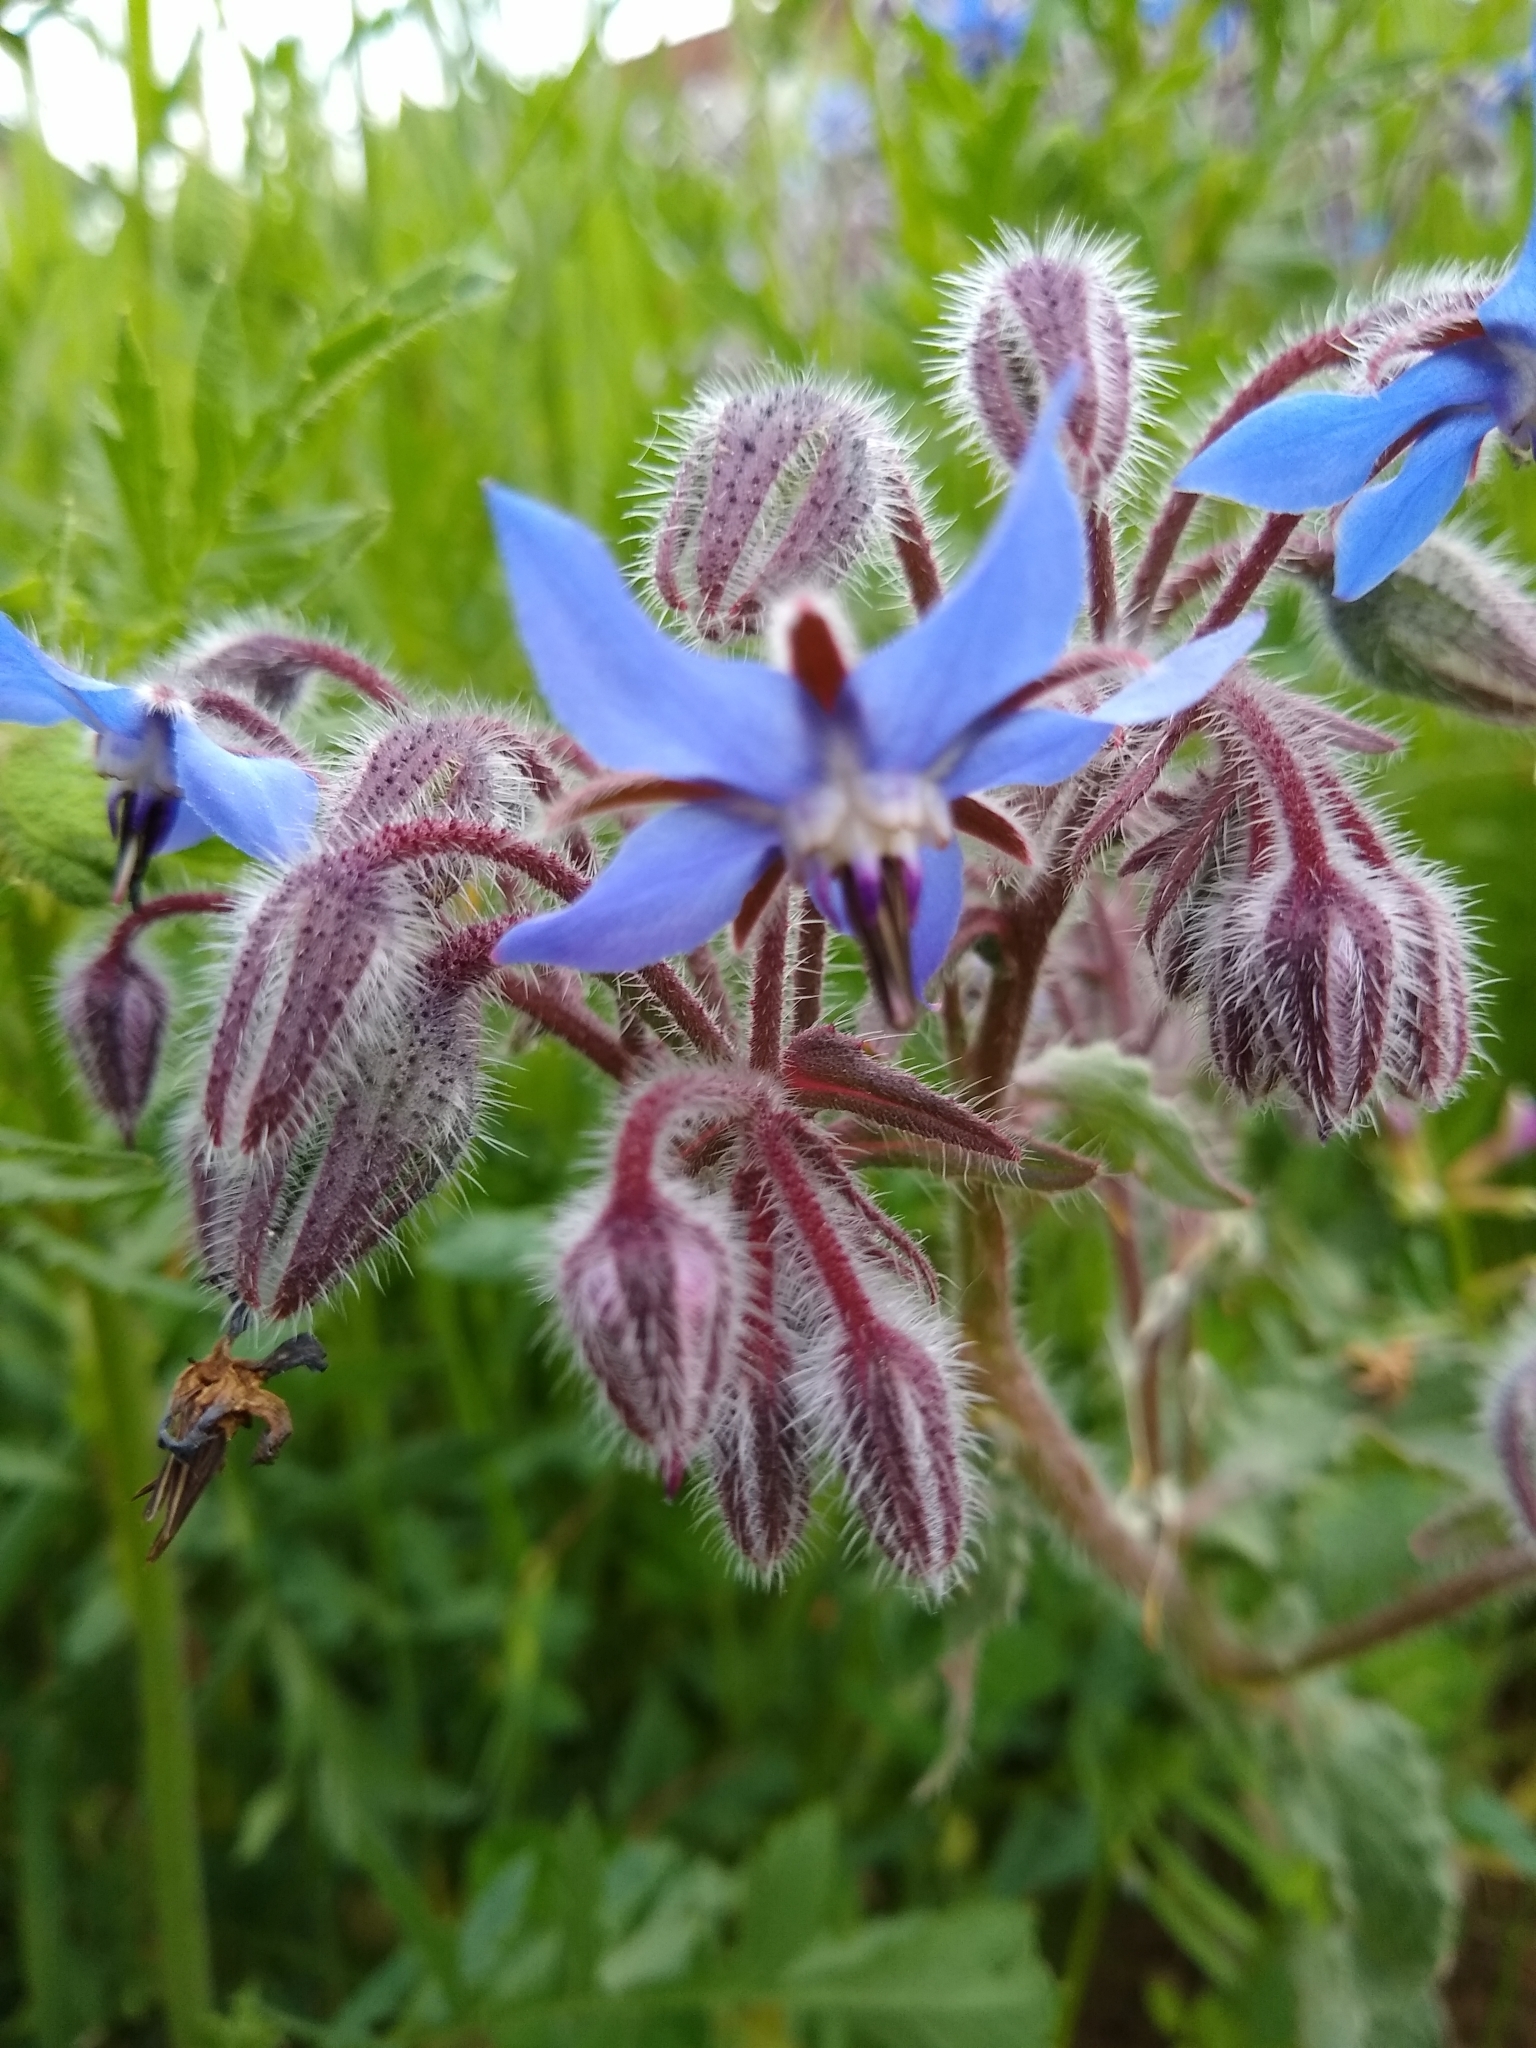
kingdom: Plantae
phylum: Tracheophyta
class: Magnoliopsida
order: Boraginales
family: Boraginaceae
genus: Borago
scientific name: Borago officinalis
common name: Borage
